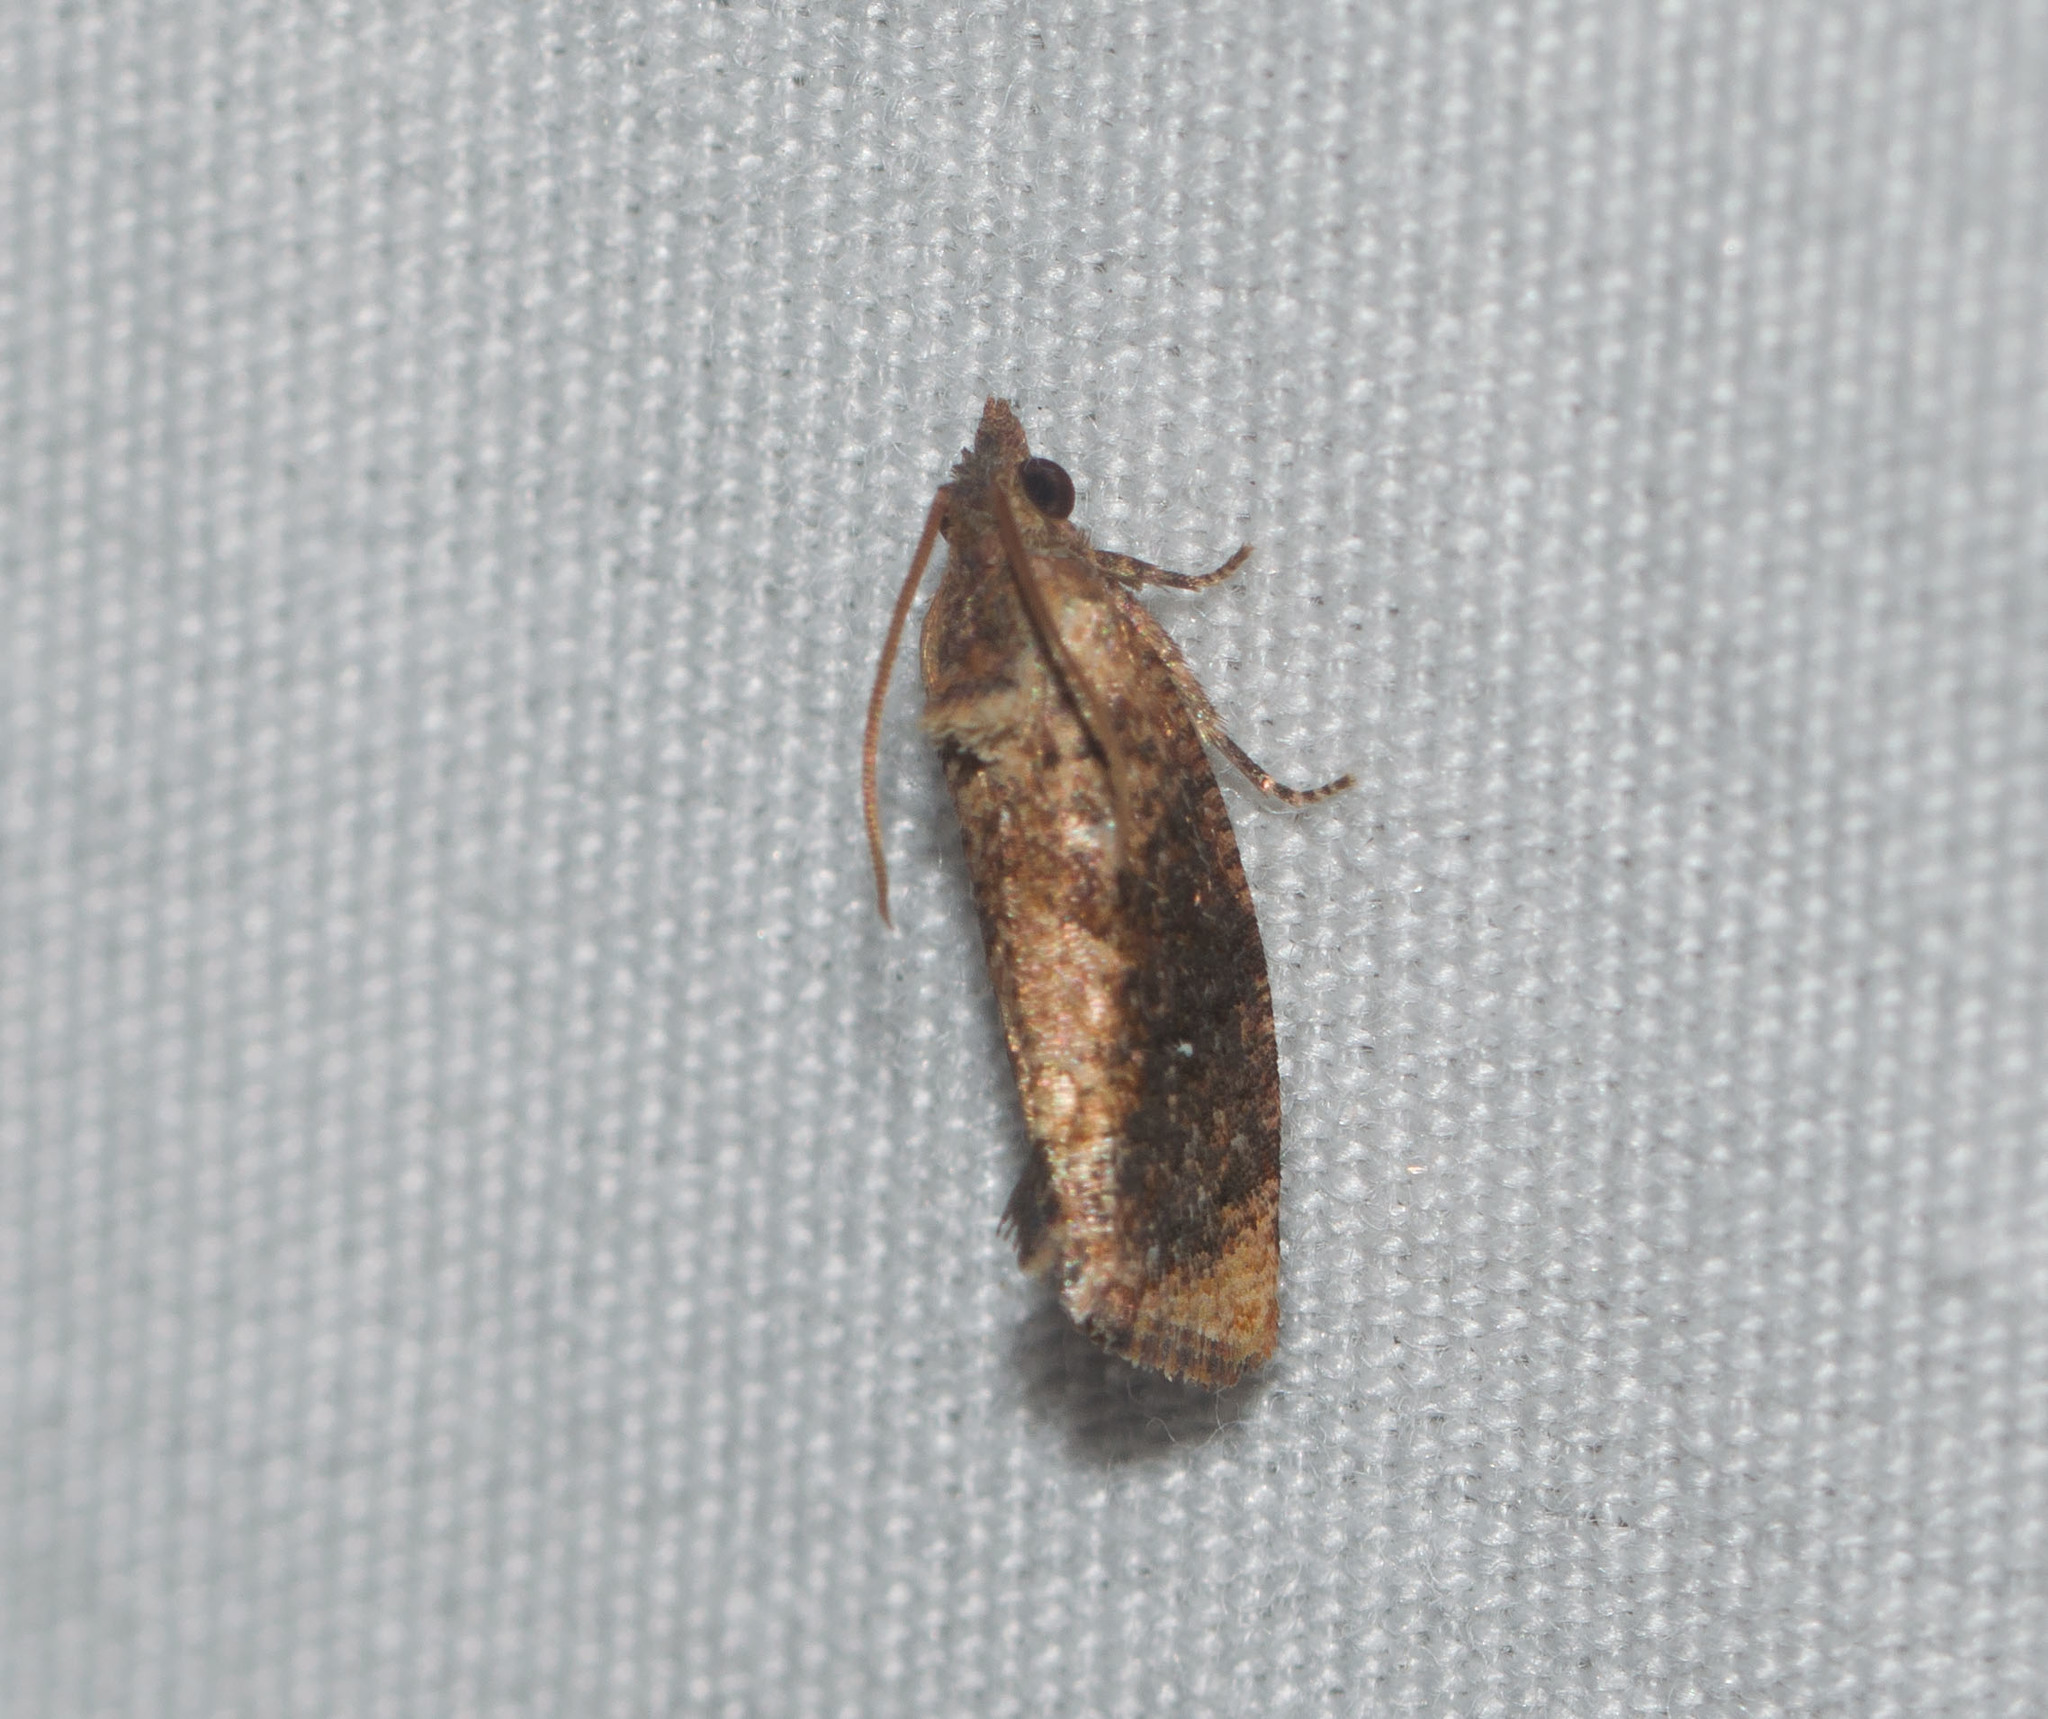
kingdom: Animalia
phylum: Arthropoda
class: Insecta
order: Lepidoptera
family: Tortricidae
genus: Cryptophlebia
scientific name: Cryptophlebia illepida
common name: Moth
